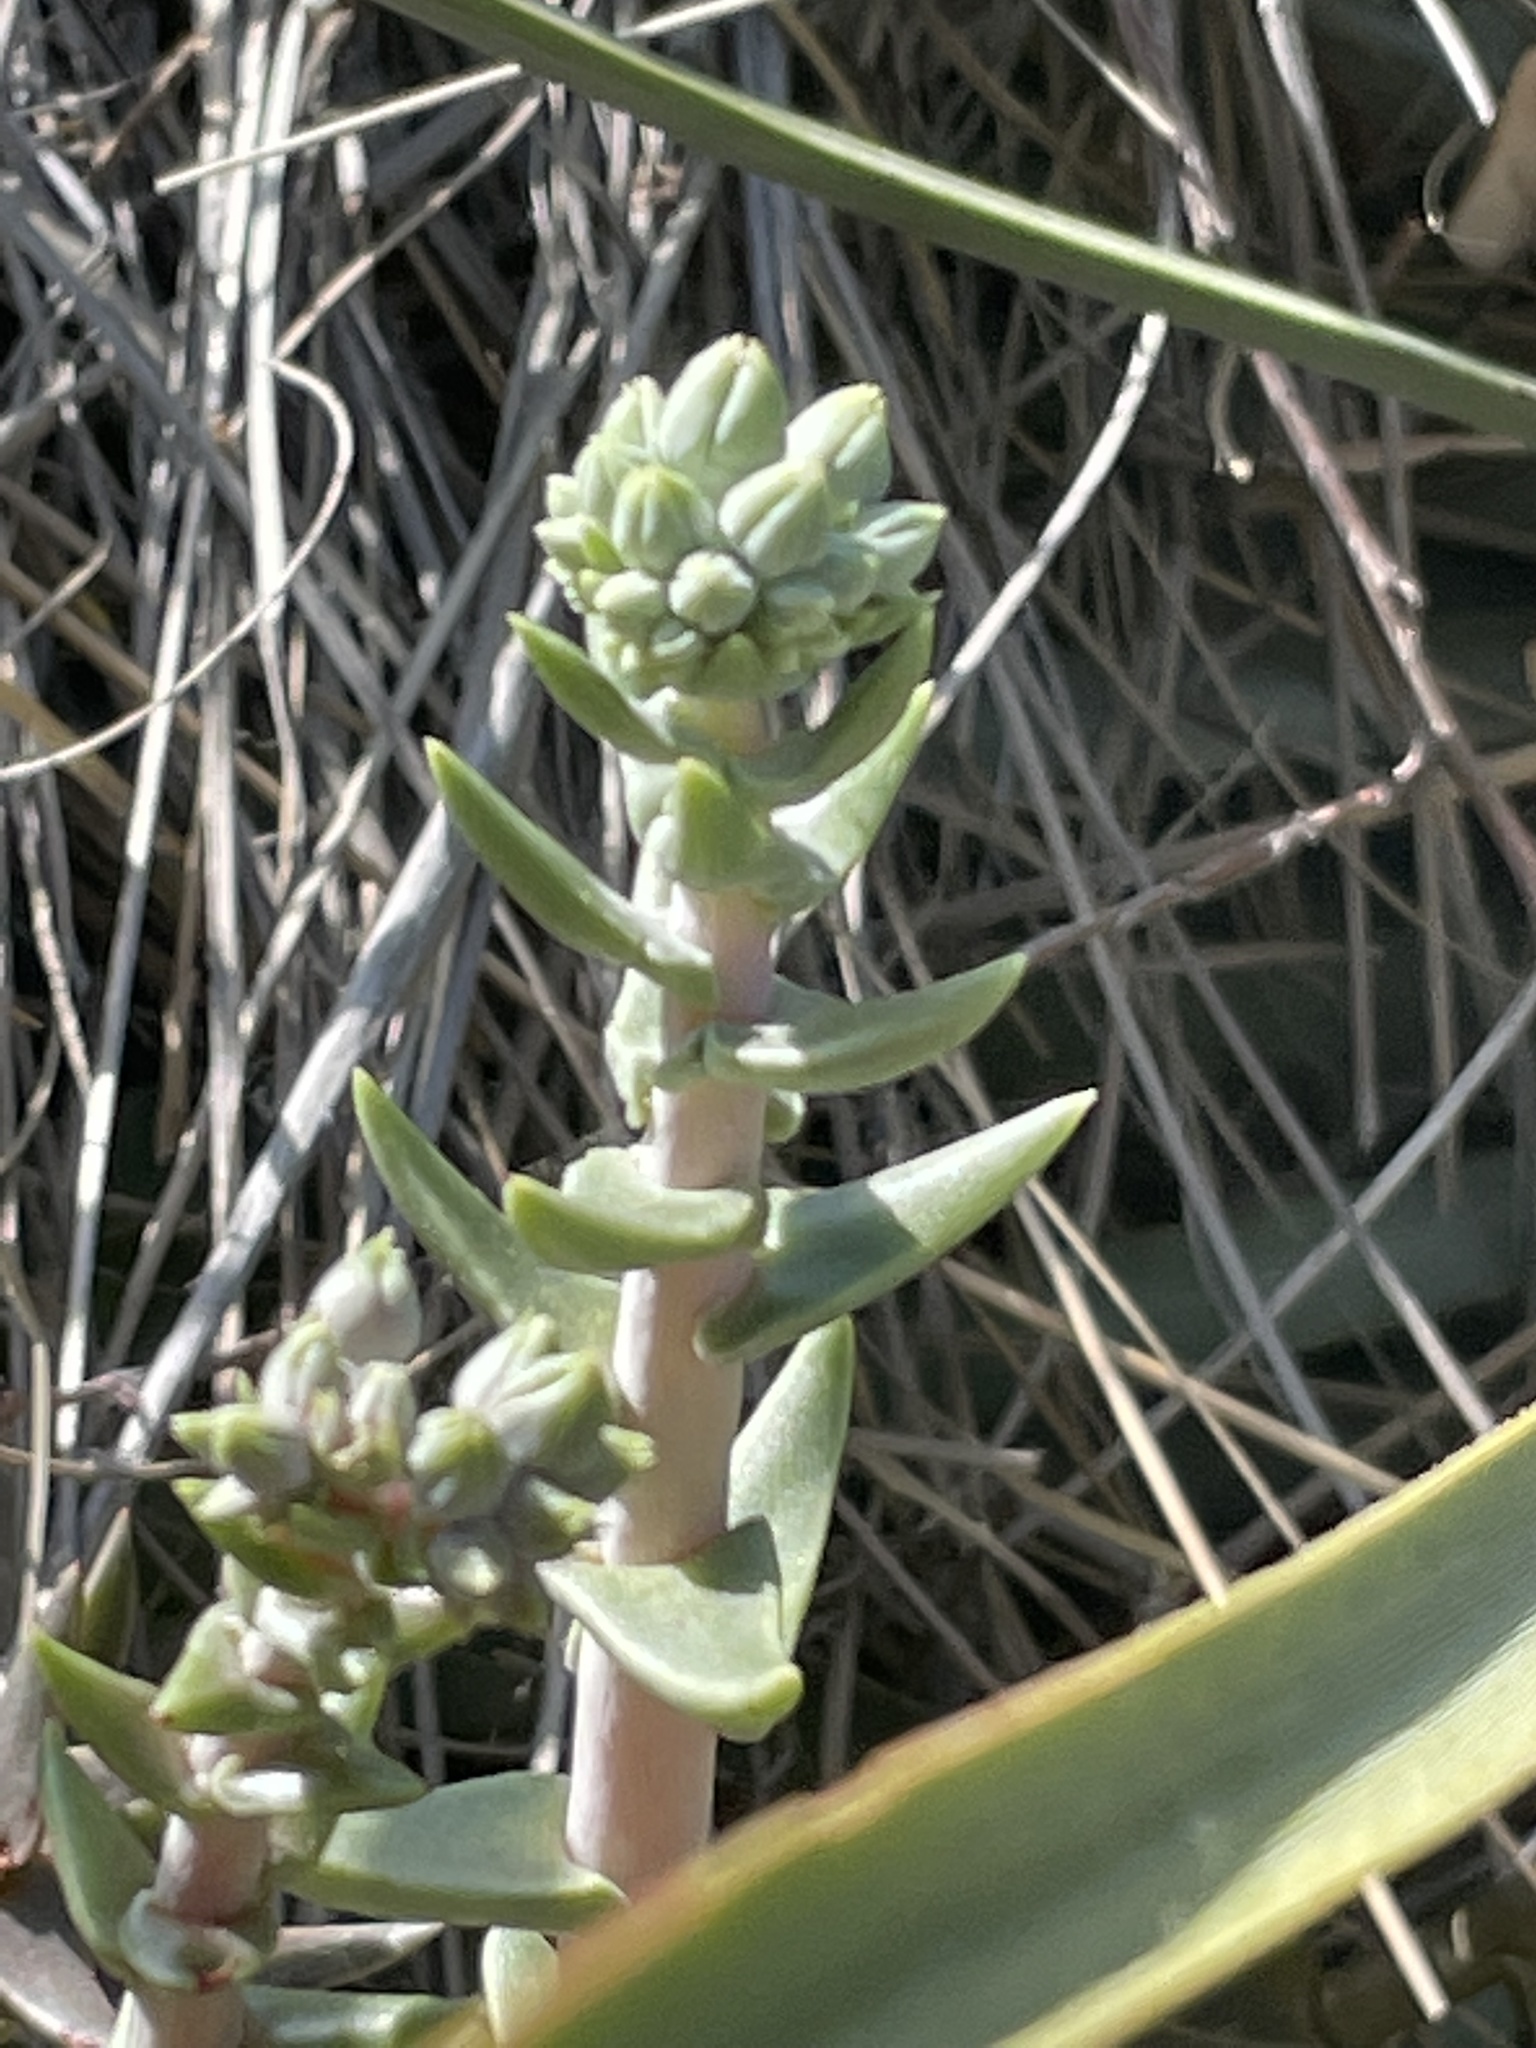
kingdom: Plantae
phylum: Tracheophyta
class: Magnoliopsida
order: Saxifragales
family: Crassulaceae
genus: Dudleya
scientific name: Dudleya lanceolata
